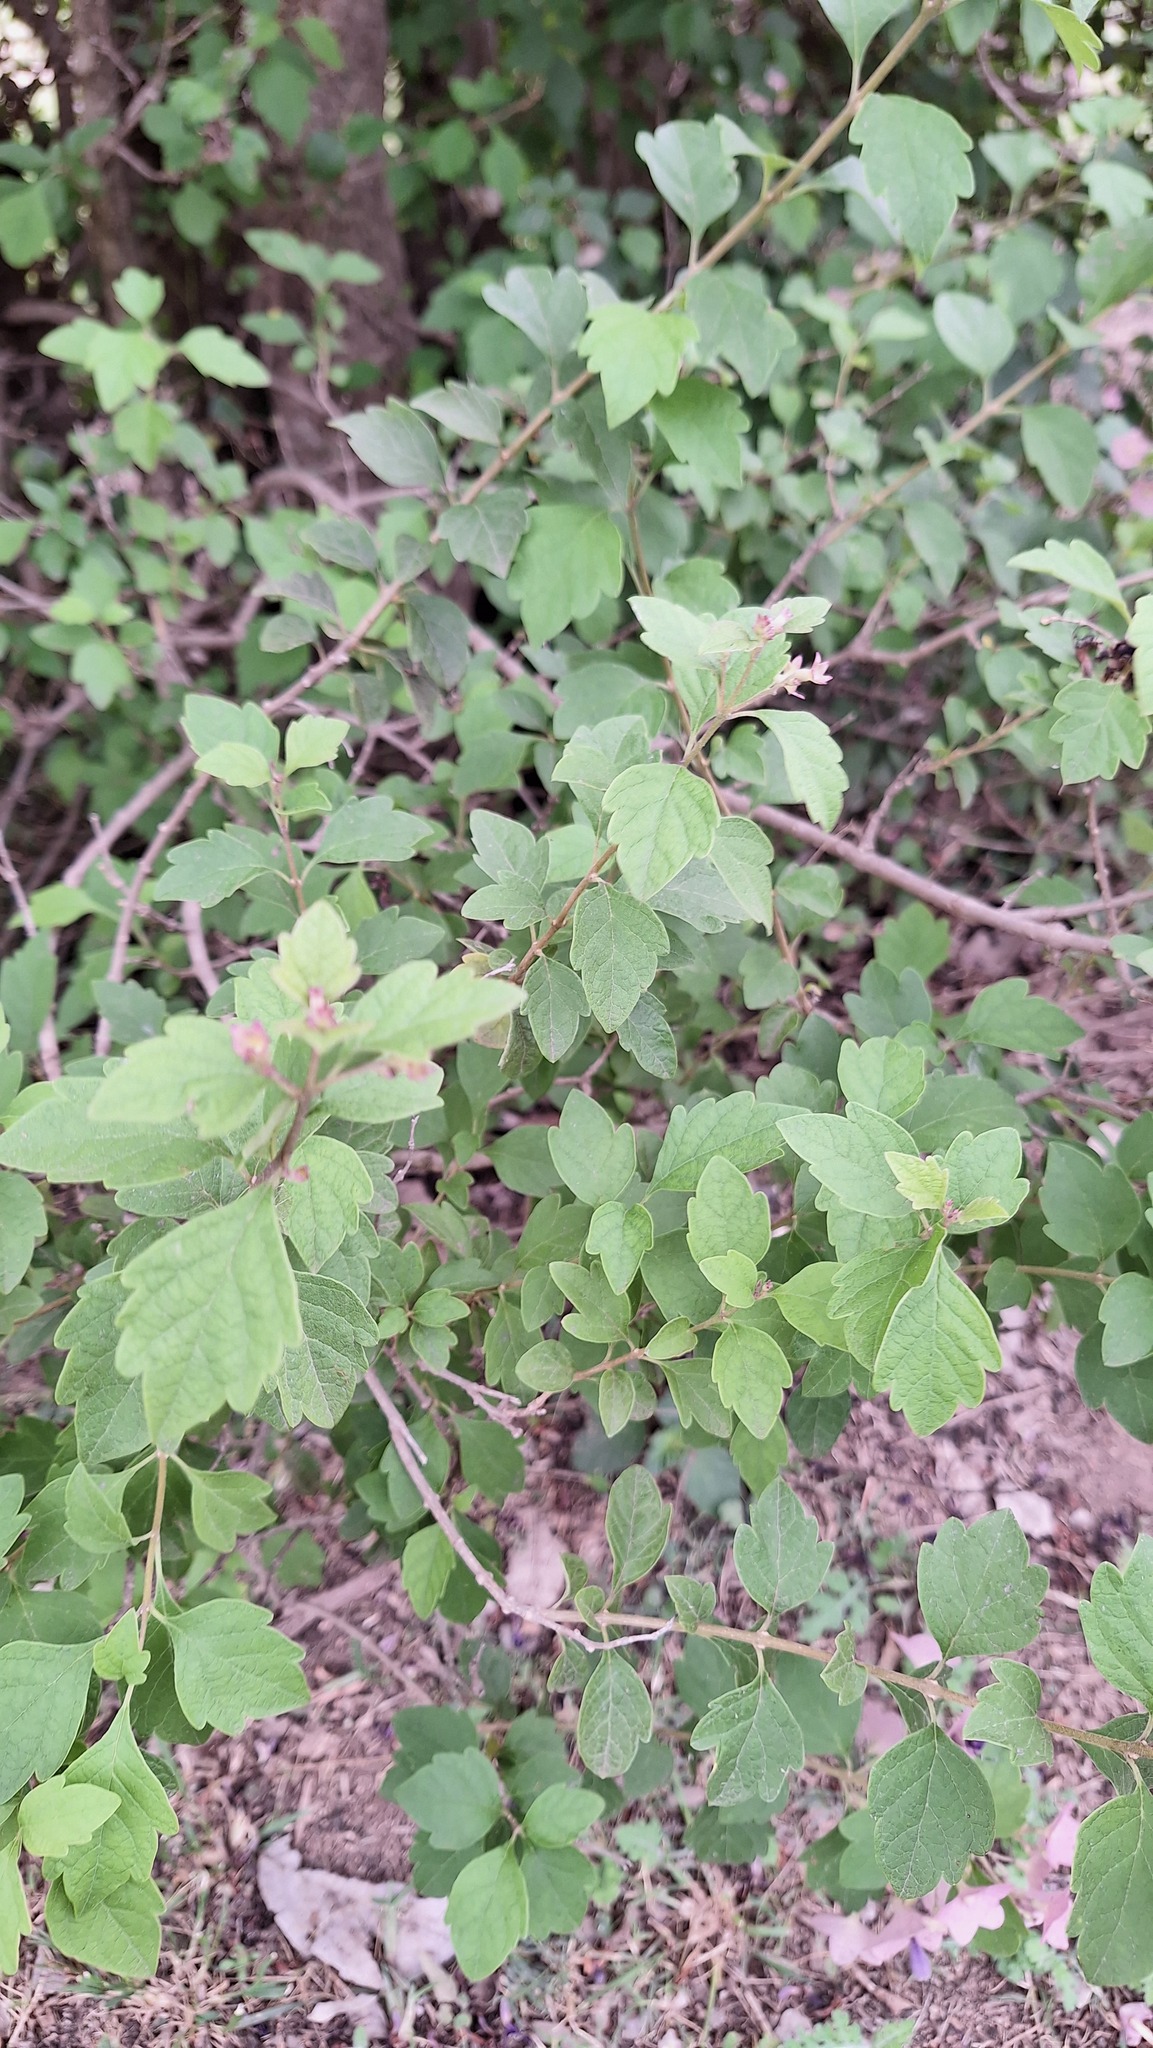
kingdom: Plantae
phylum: Tracheophyta
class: Magnoliopsida
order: Lamiales
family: Lamiaceae
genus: Karomia
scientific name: Karomia speciosa
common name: Southern chinese-hats
